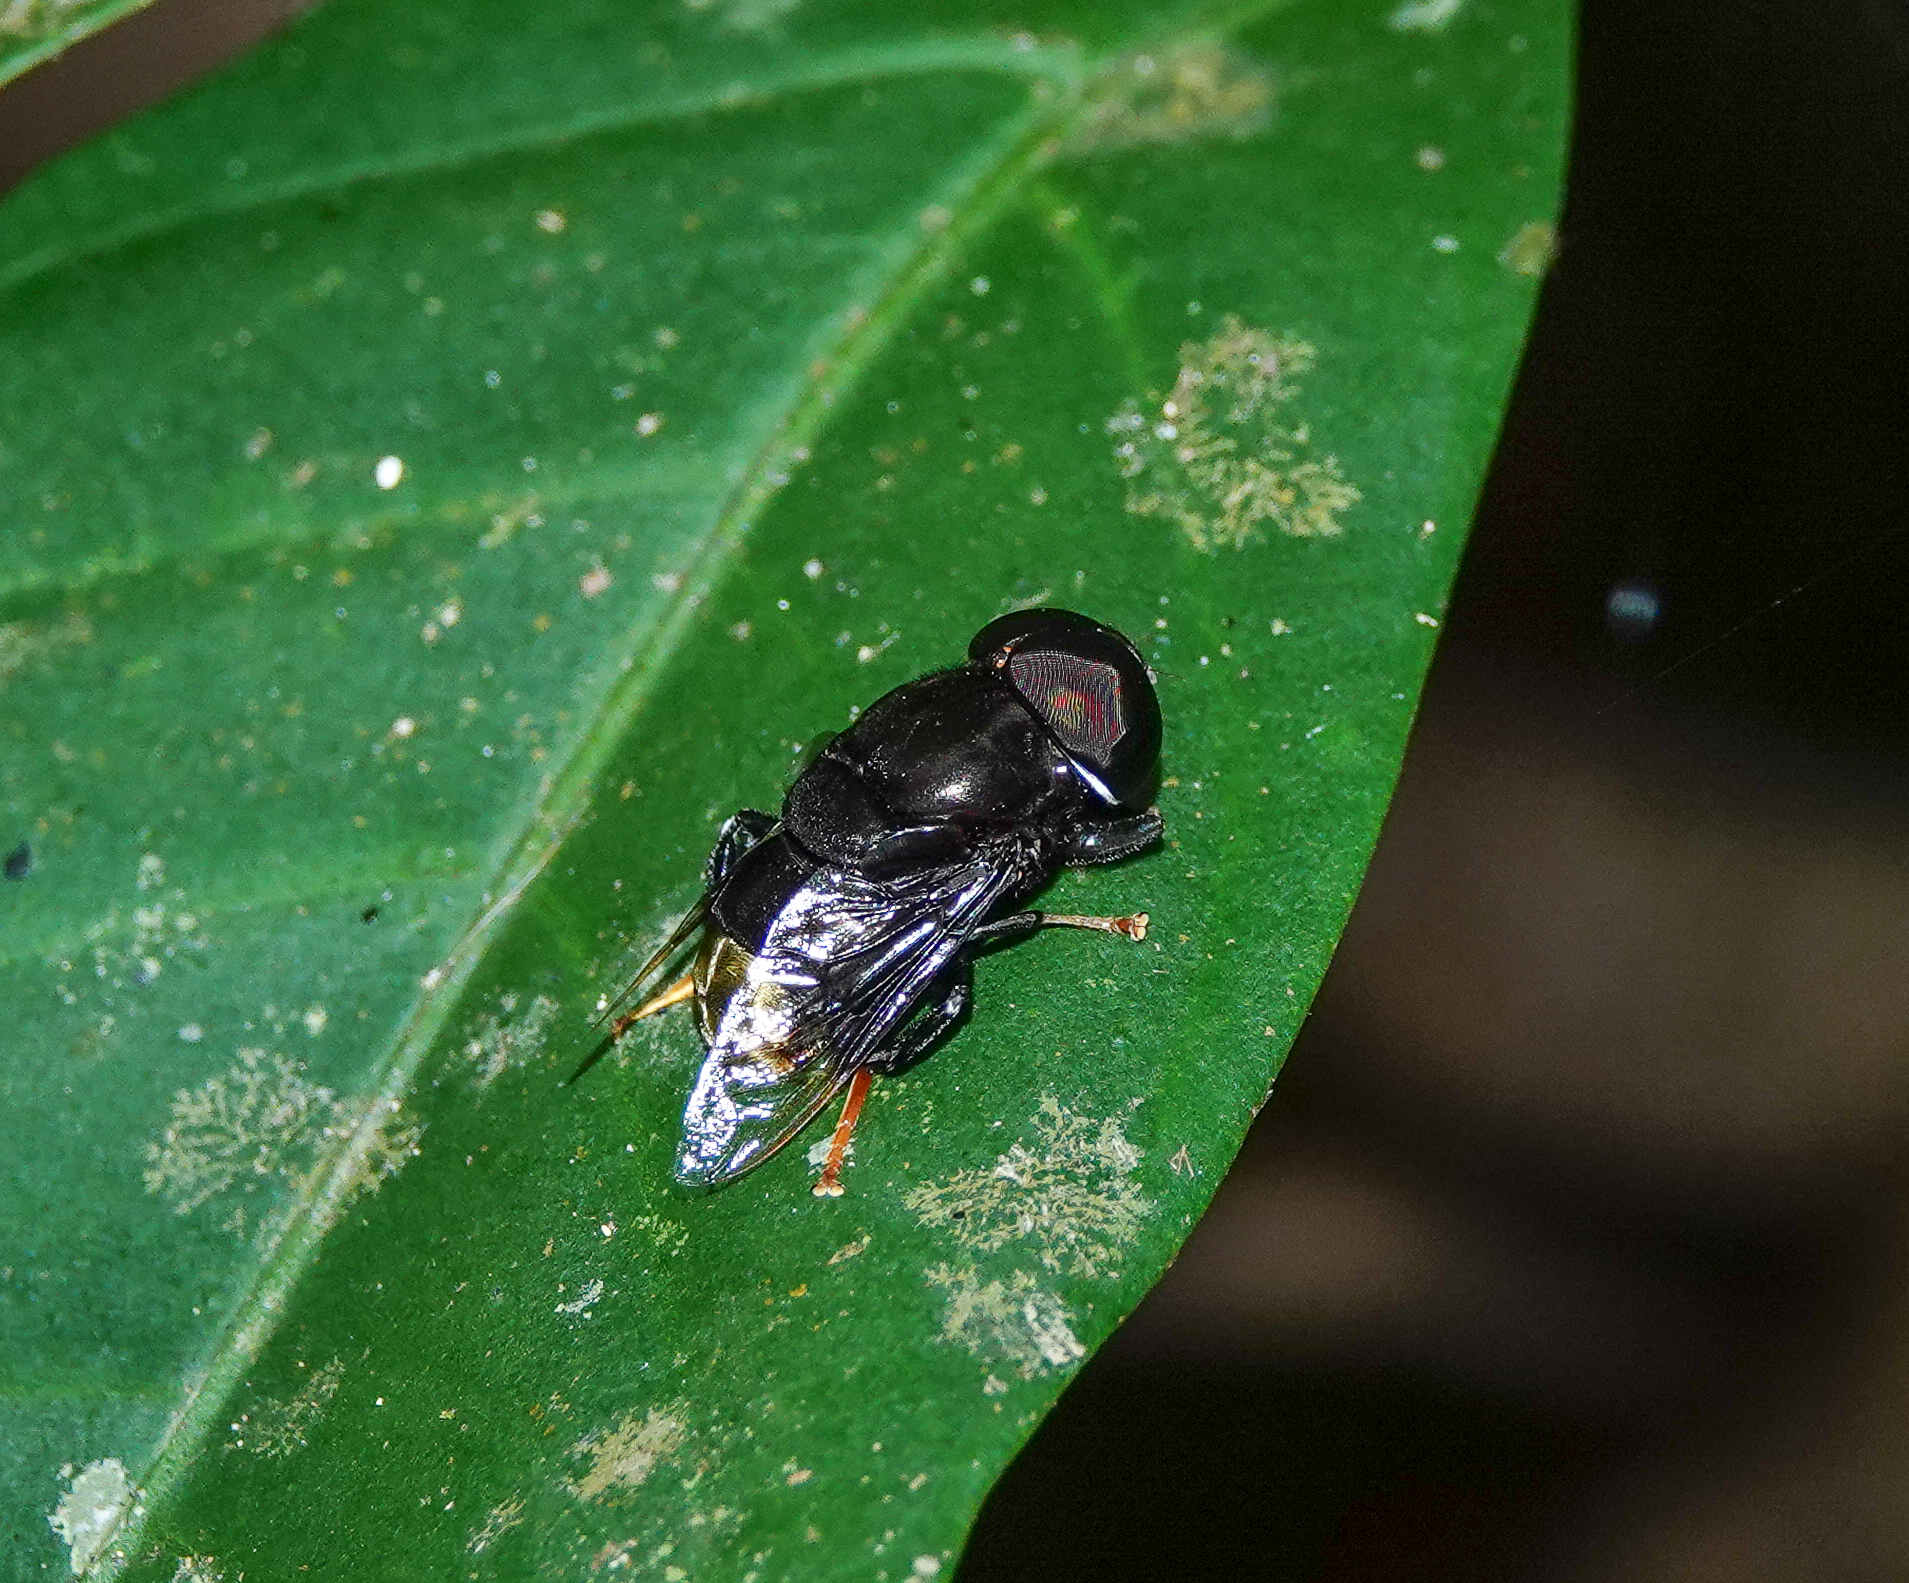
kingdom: Animalia
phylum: Arthropoda
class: Insecta
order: Diptera
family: Syrphidae
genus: Phytomia
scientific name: Phytomia chrysopyga
